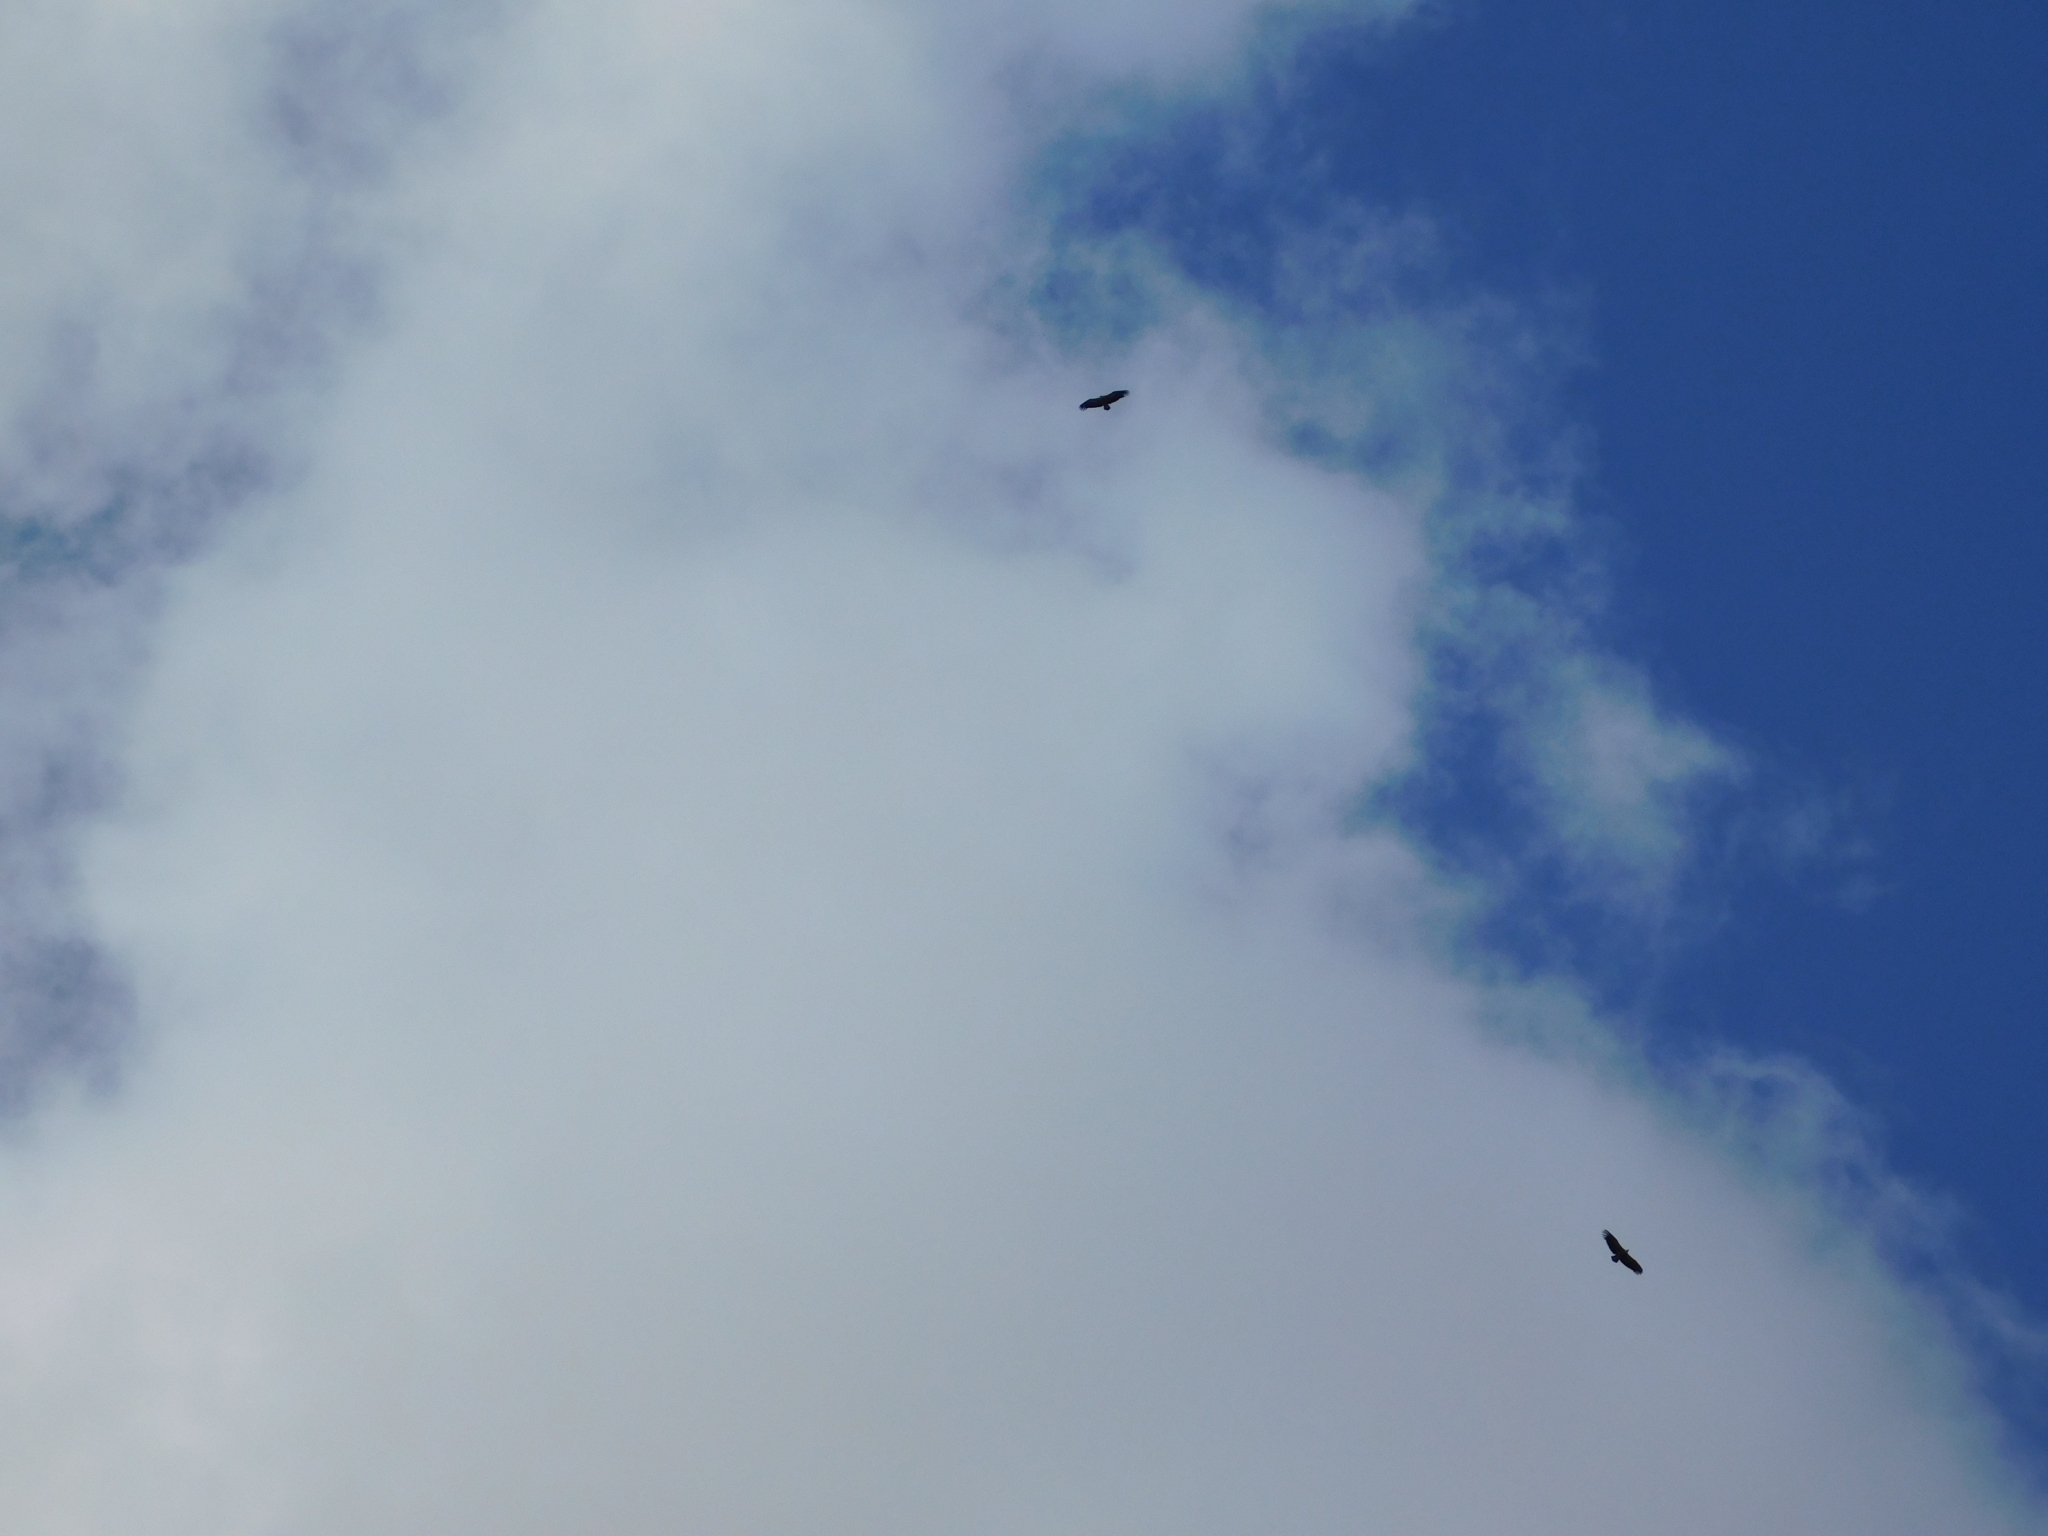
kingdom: Animalia
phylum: Chordata
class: Aves
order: Accipitriformes
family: Accipitridae
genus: Gyps
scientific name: Gyps fulvus
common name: Griffon vulture
